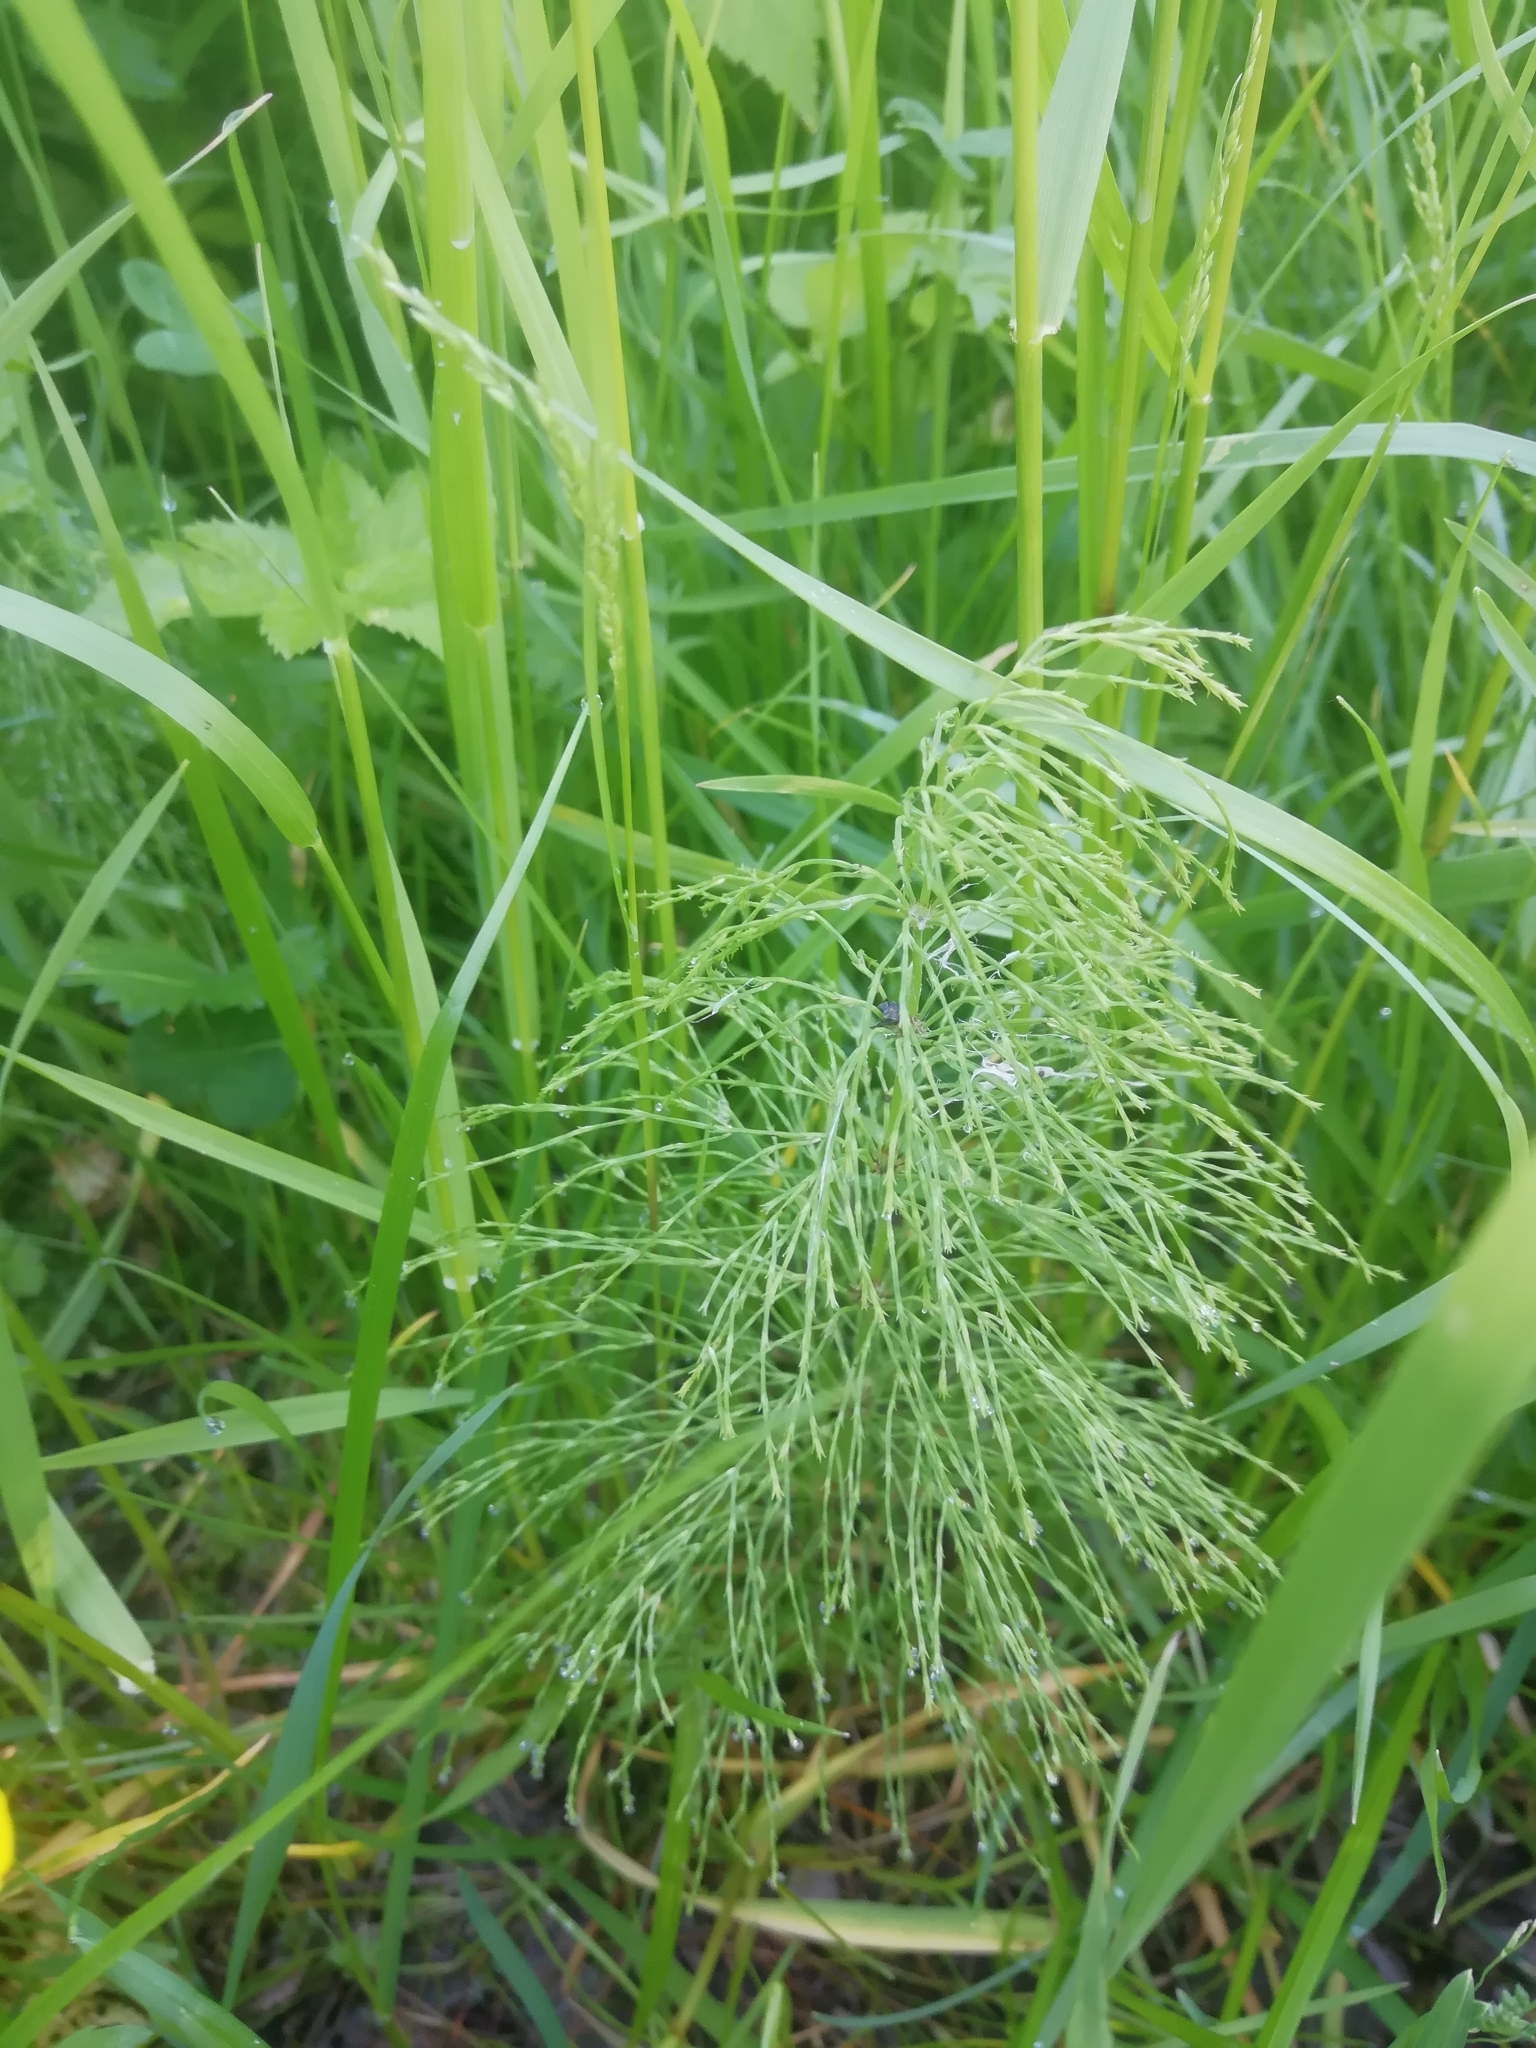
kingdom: Plantae
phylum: Tracheophyta
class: Polypodiopsida
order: Equisetales
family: Equisetaceae
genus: Equisetum
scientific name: Equisetum sylvaticum
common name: Wood horsetail
